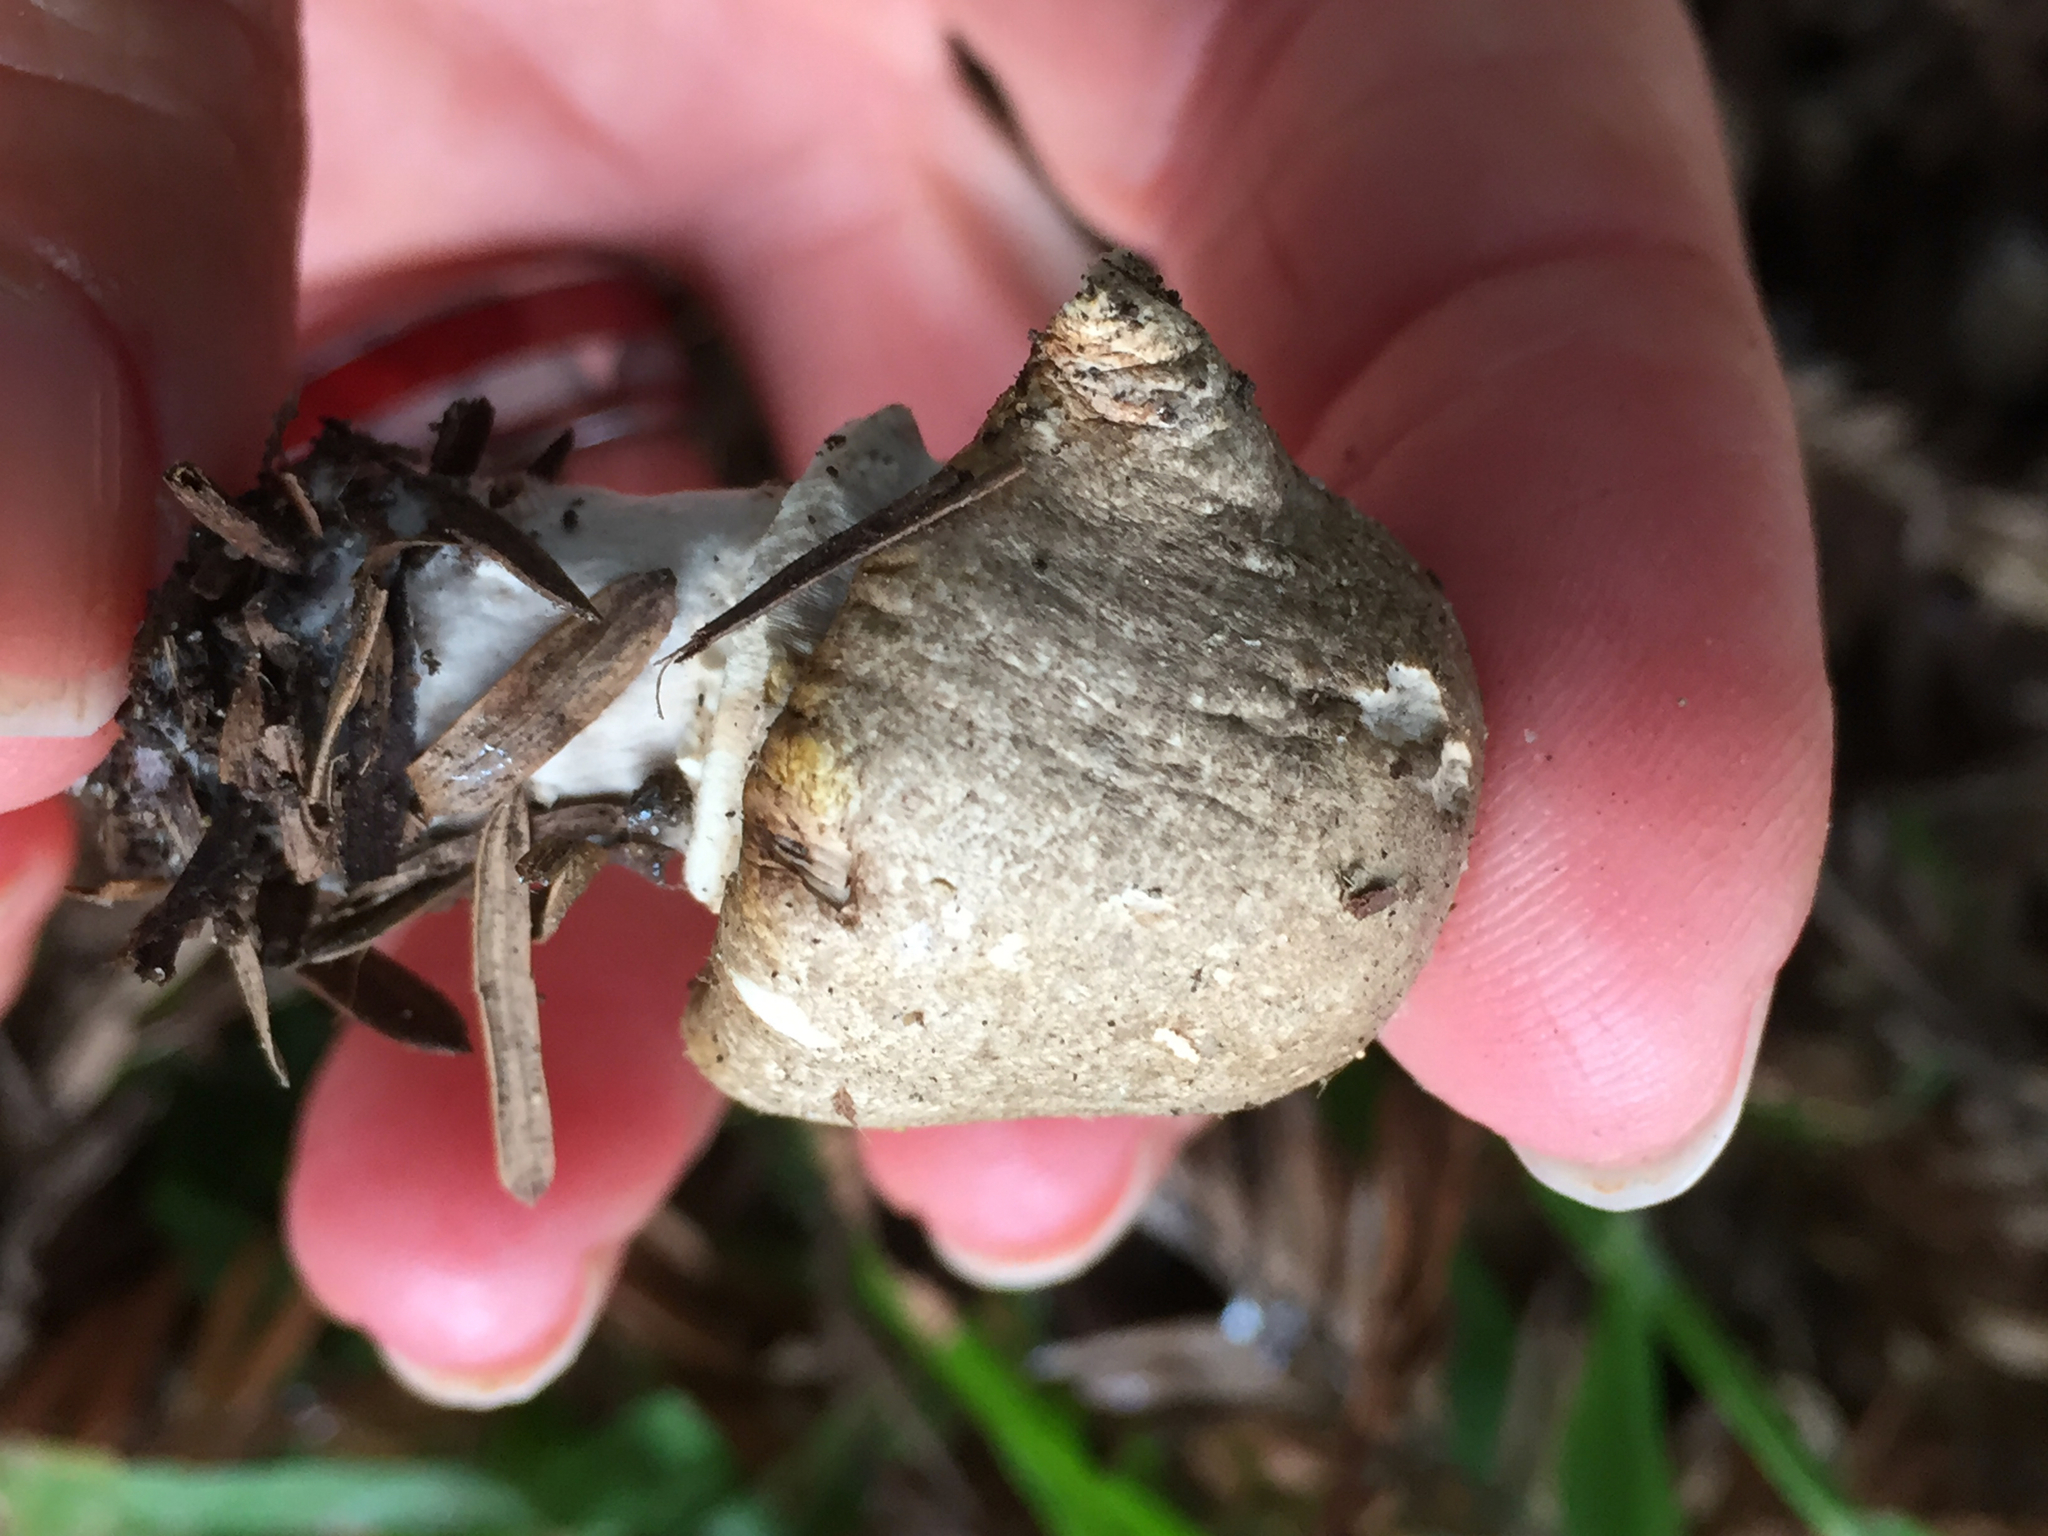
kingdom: Fungi
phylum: Basidiomycota
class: Agaricomycetes
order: Agaricales
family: Agaricaceae
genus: Agaricus
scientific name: Agaricus xanthodermus
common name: Yellow stainer
